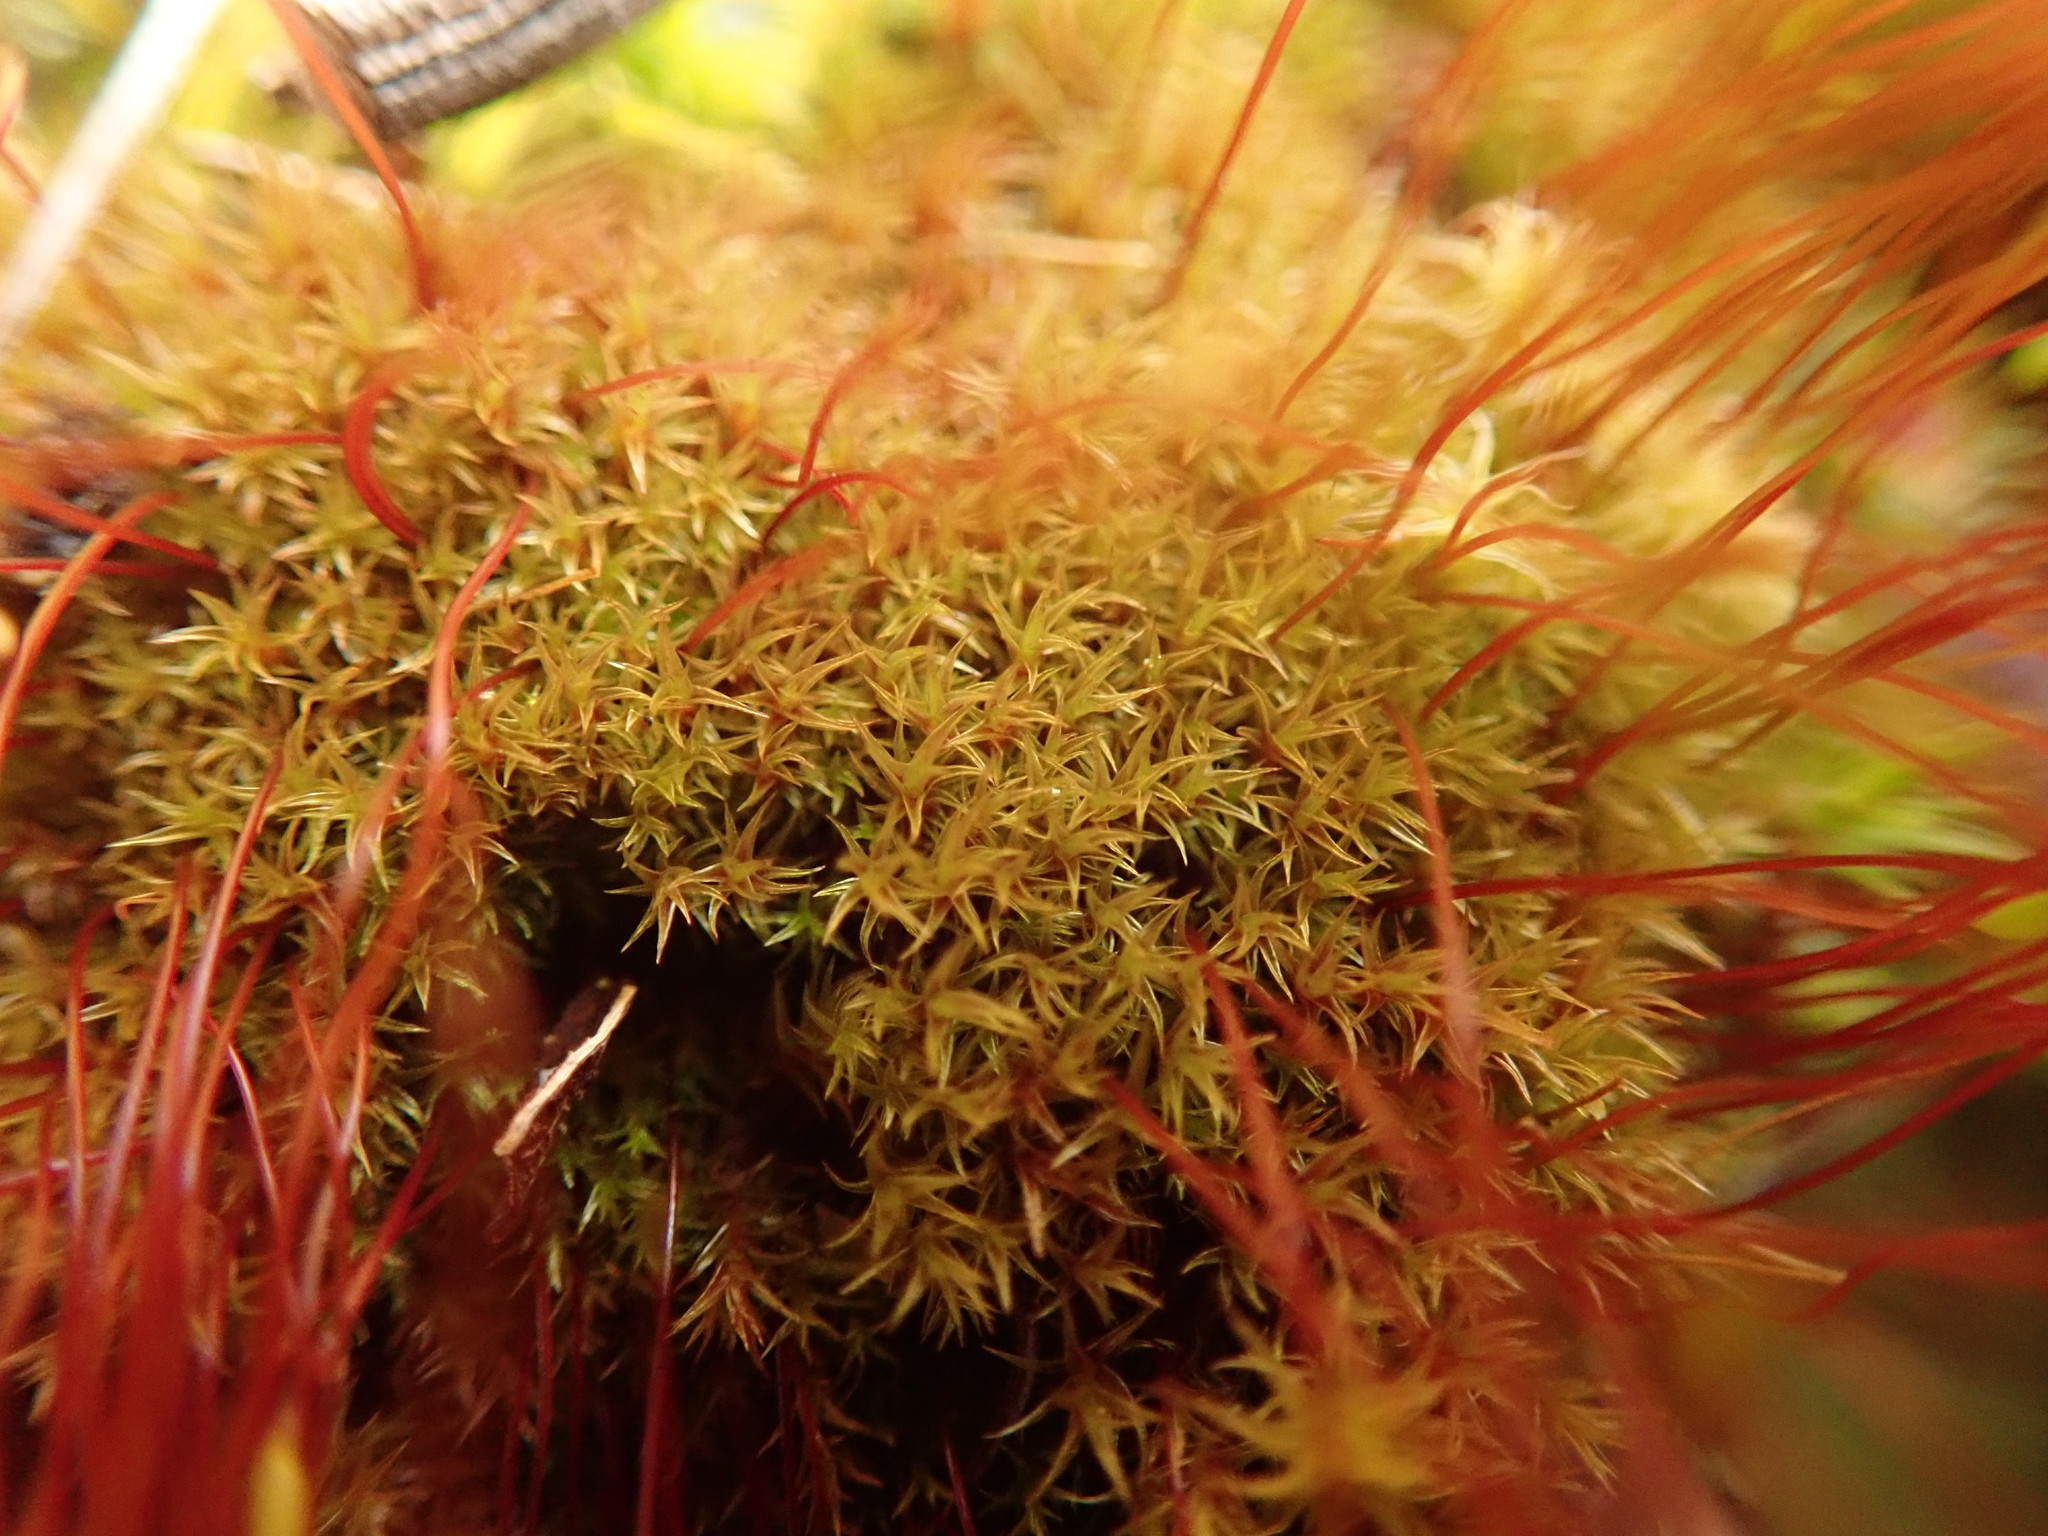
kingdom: Plantae
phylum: Bryophyta
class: Bryopsida
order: Dicranales
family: Ditrichaceae
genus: Ceratodon
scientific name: Ceratodon purpureus
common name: Redshank
